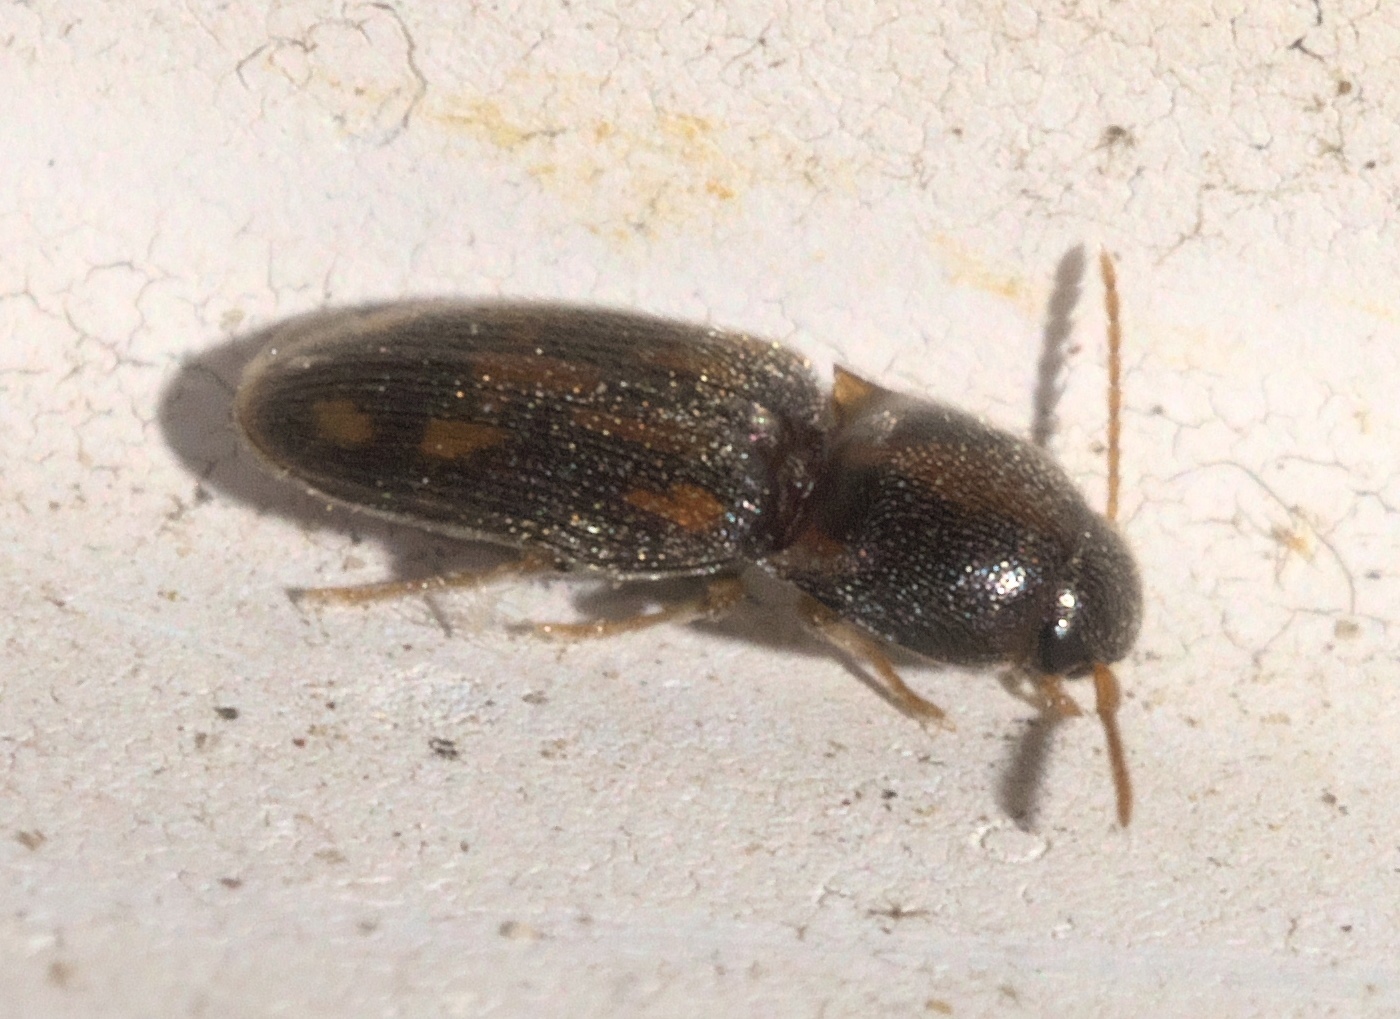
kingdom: Animalia
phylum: Arthropoda
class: Insecta
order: Coleoptera
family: Elateridae
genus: Monocrepidius
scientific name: Monocrepidius bellus
